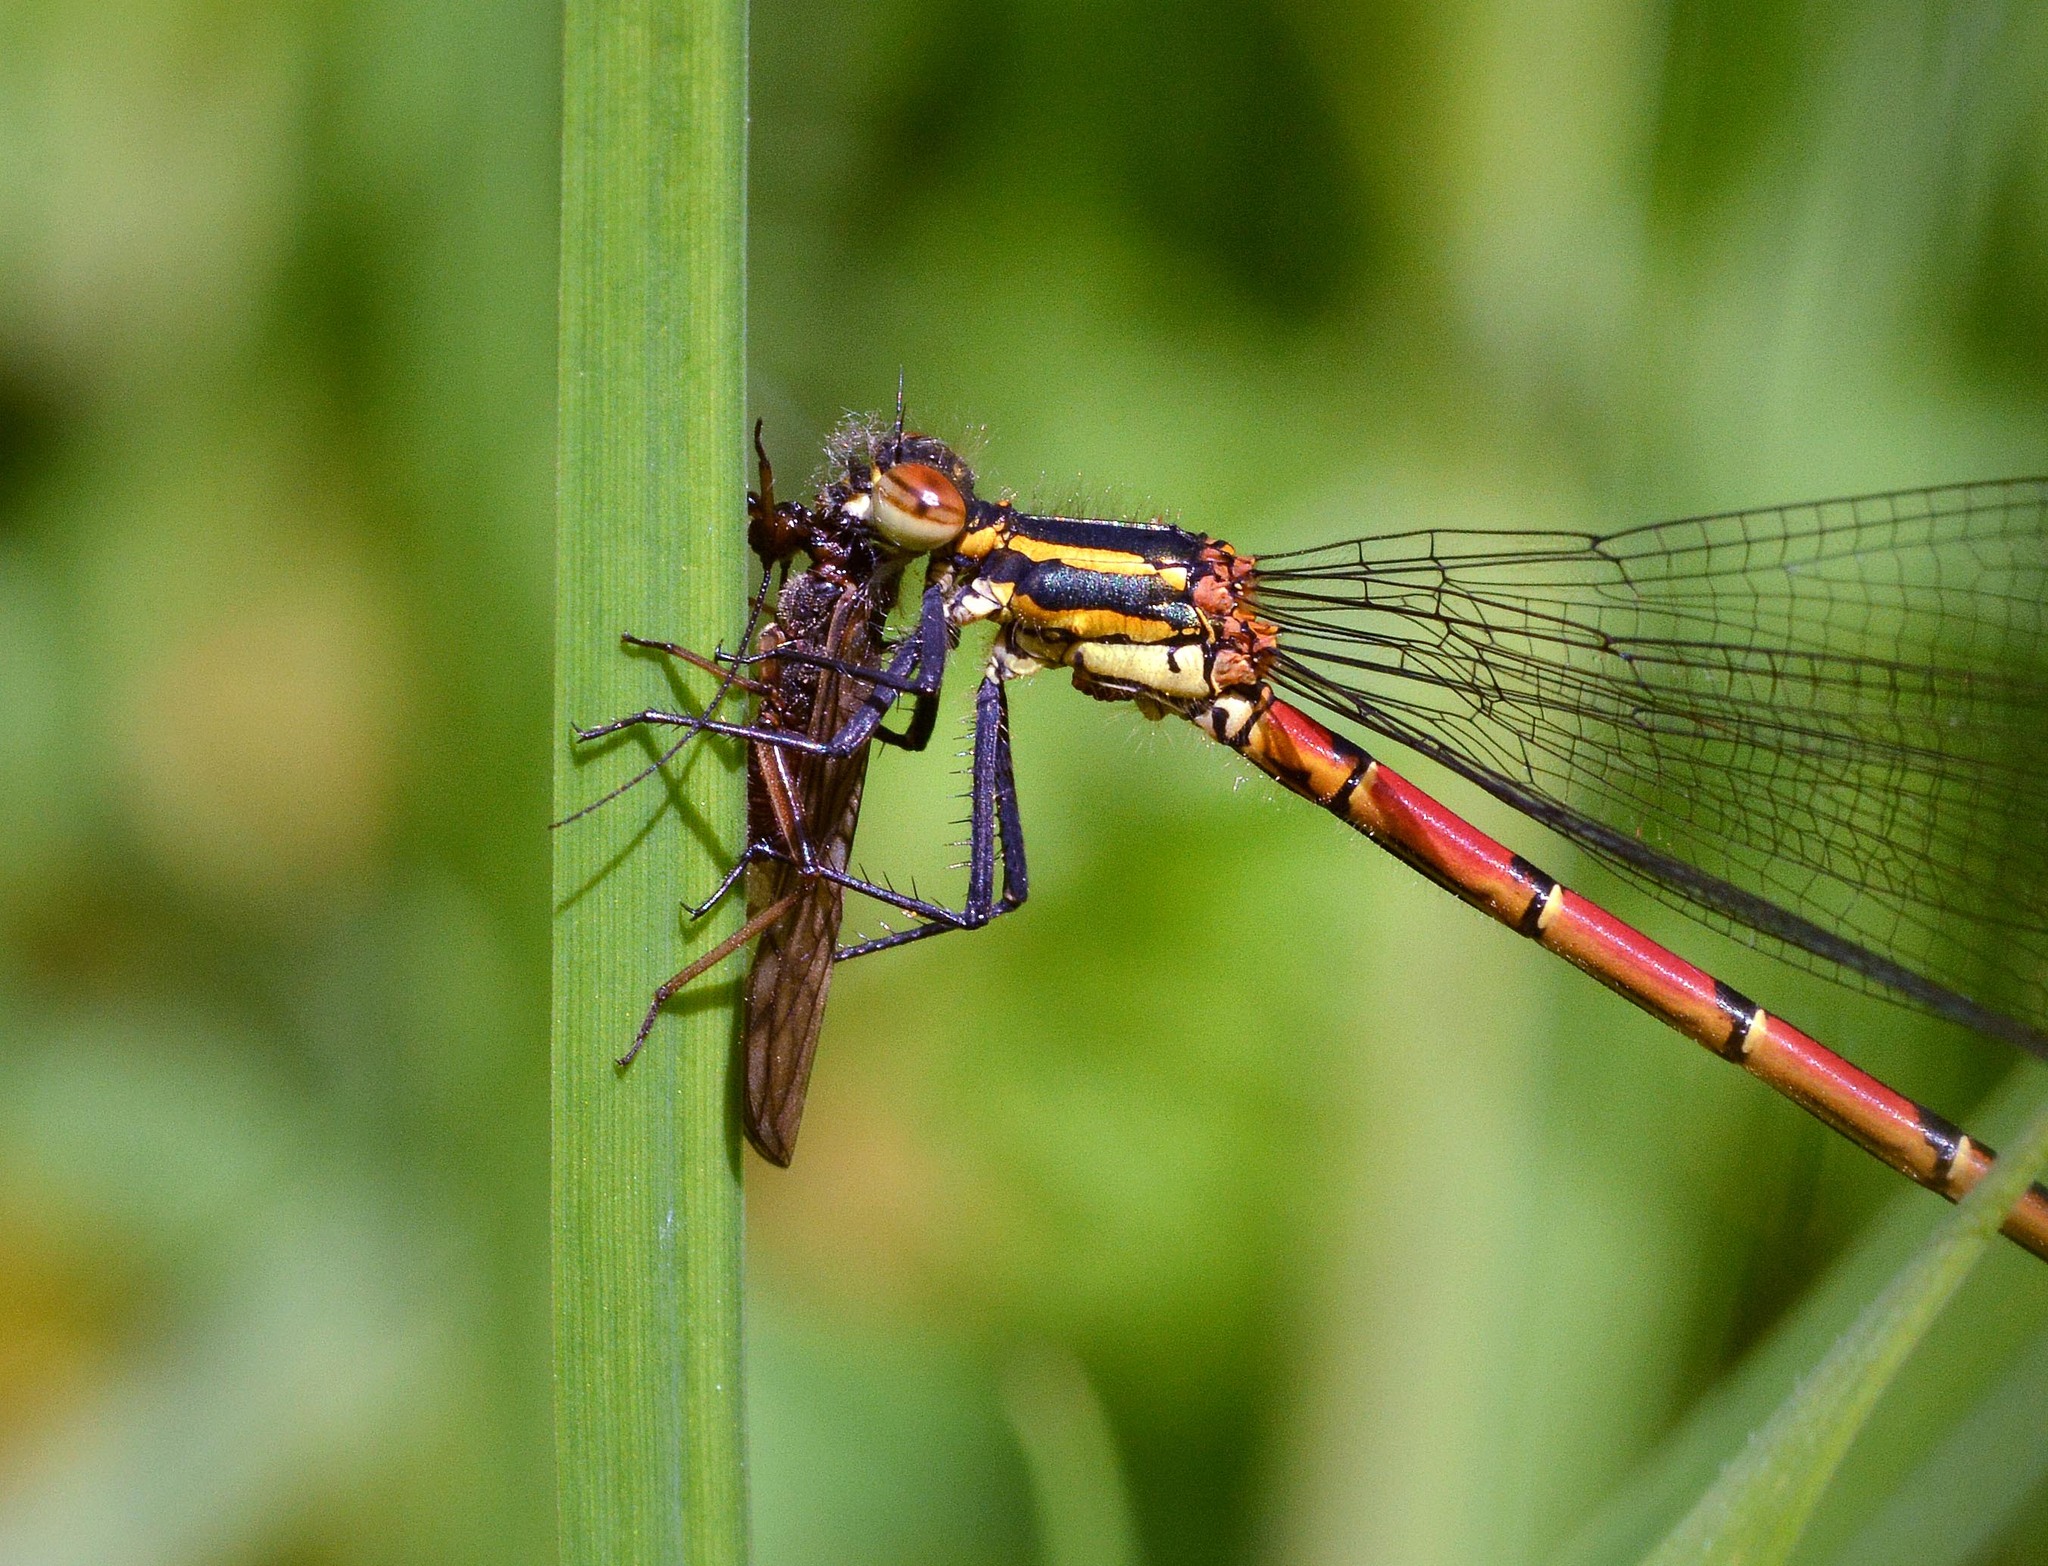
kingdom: Animalia
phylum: Arthropoda
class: Insecta
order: Odonata
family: Coenagrionidae
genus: Pyrrhosoma
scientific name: Pyrrhosoma nymphula
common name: Large red damsel
